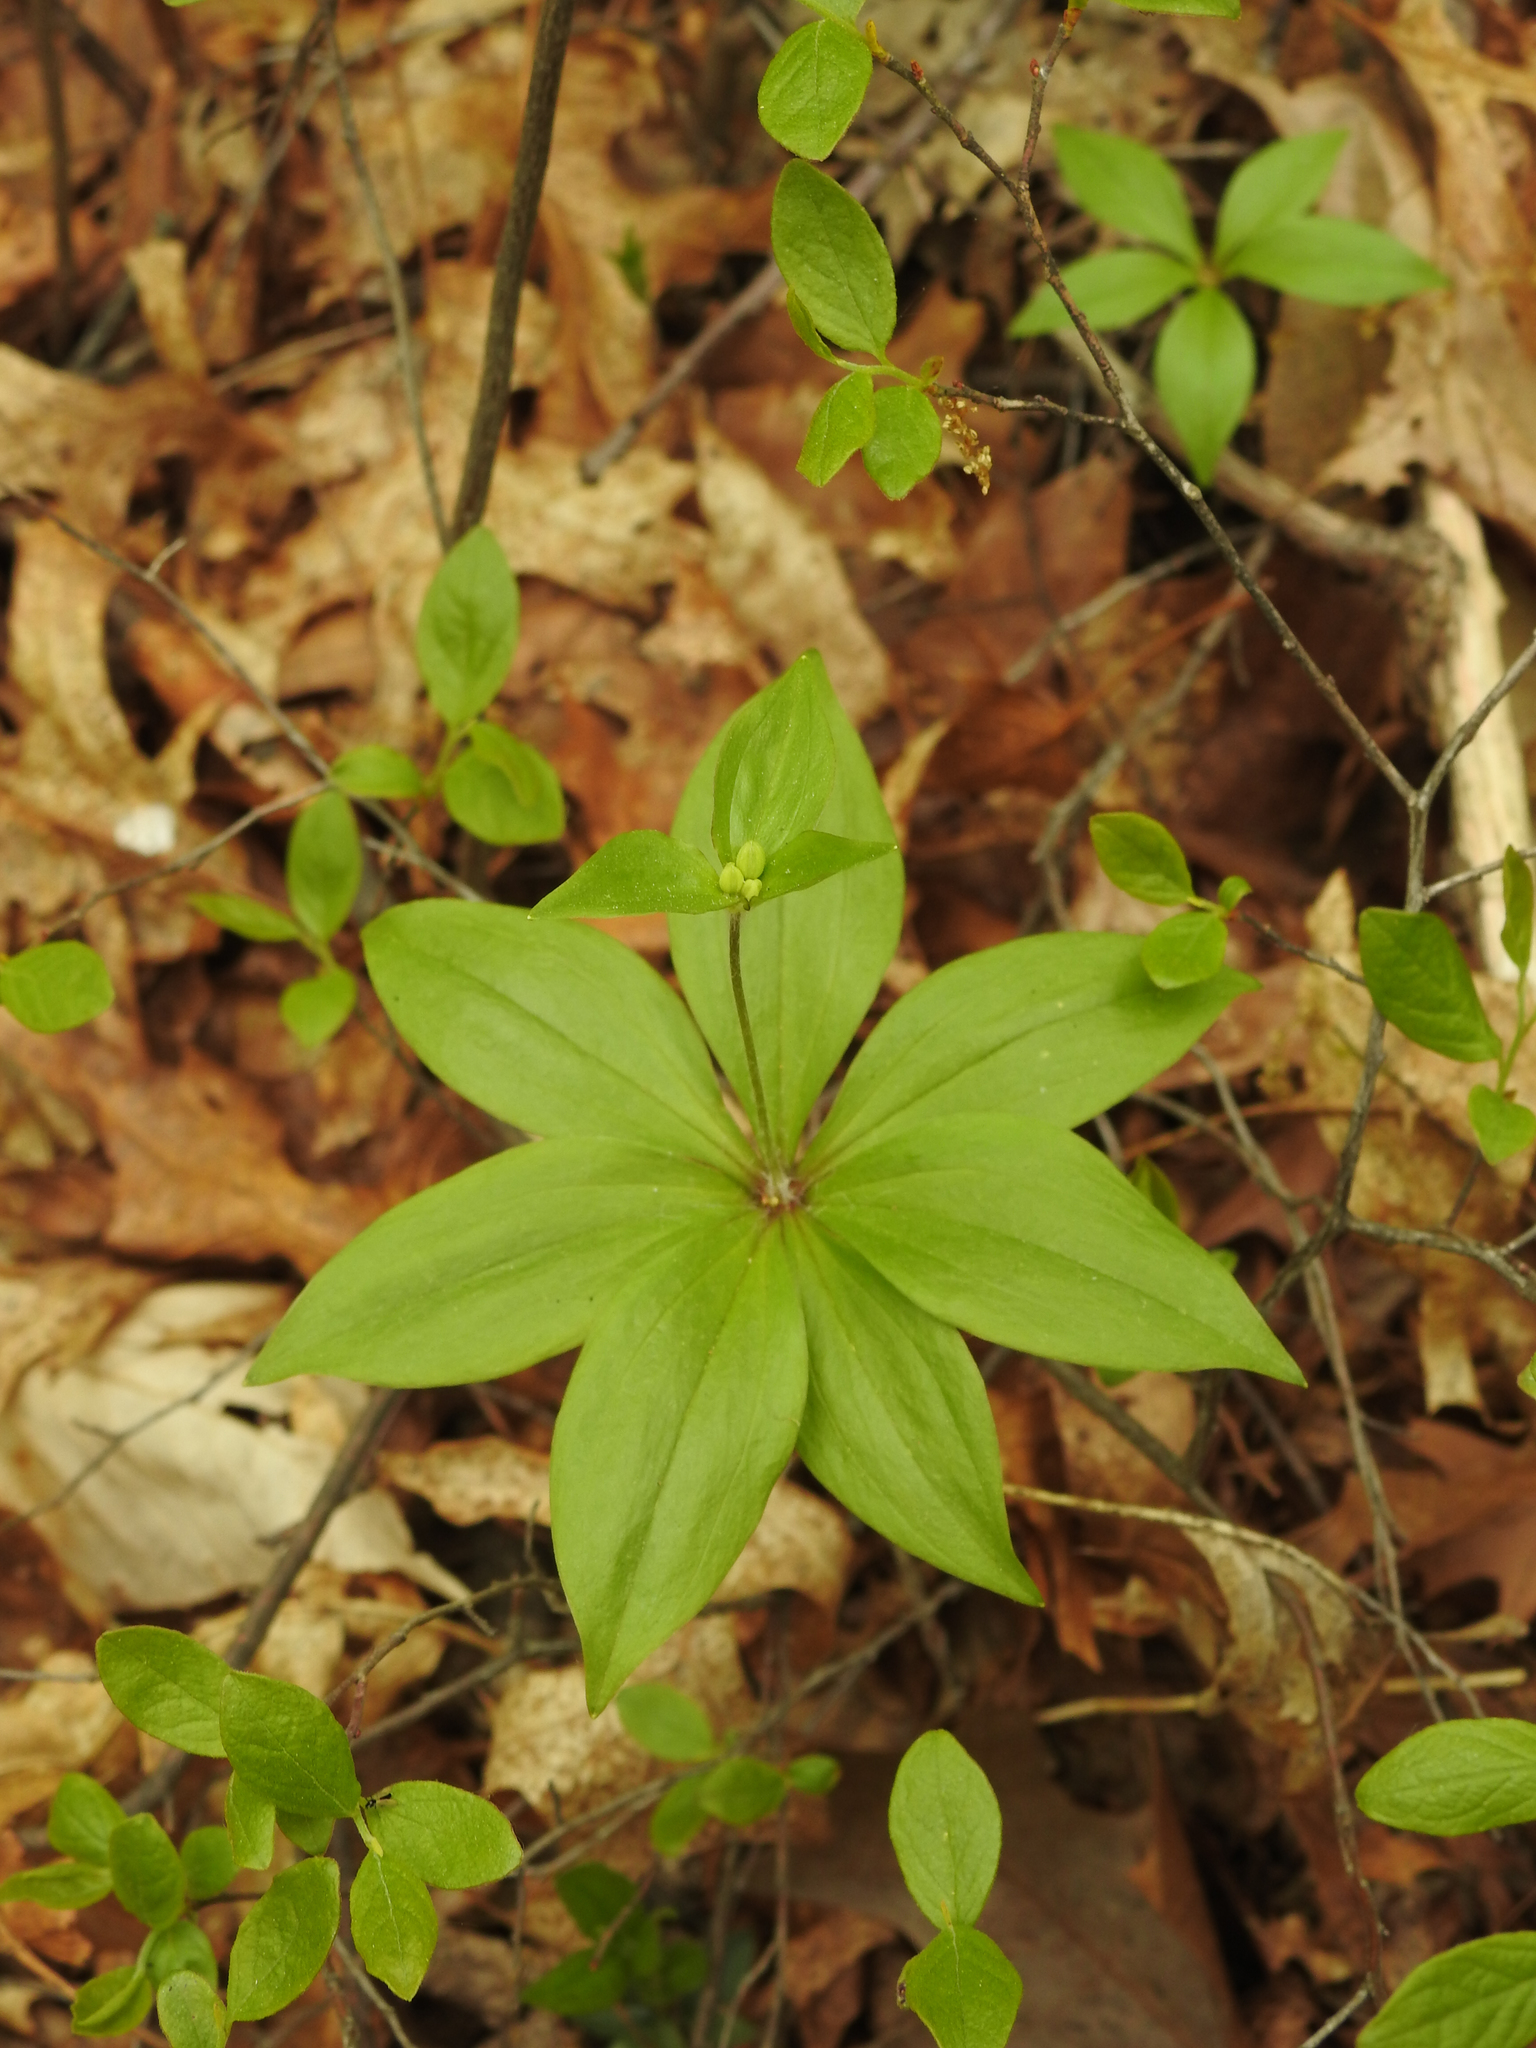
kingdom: Plantae
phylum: Tracheophyta
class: Liliopsida
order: Liliales
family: Liliaceae
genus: Medeola
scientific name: Medeola virginiana
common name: Indian cucumber-root
